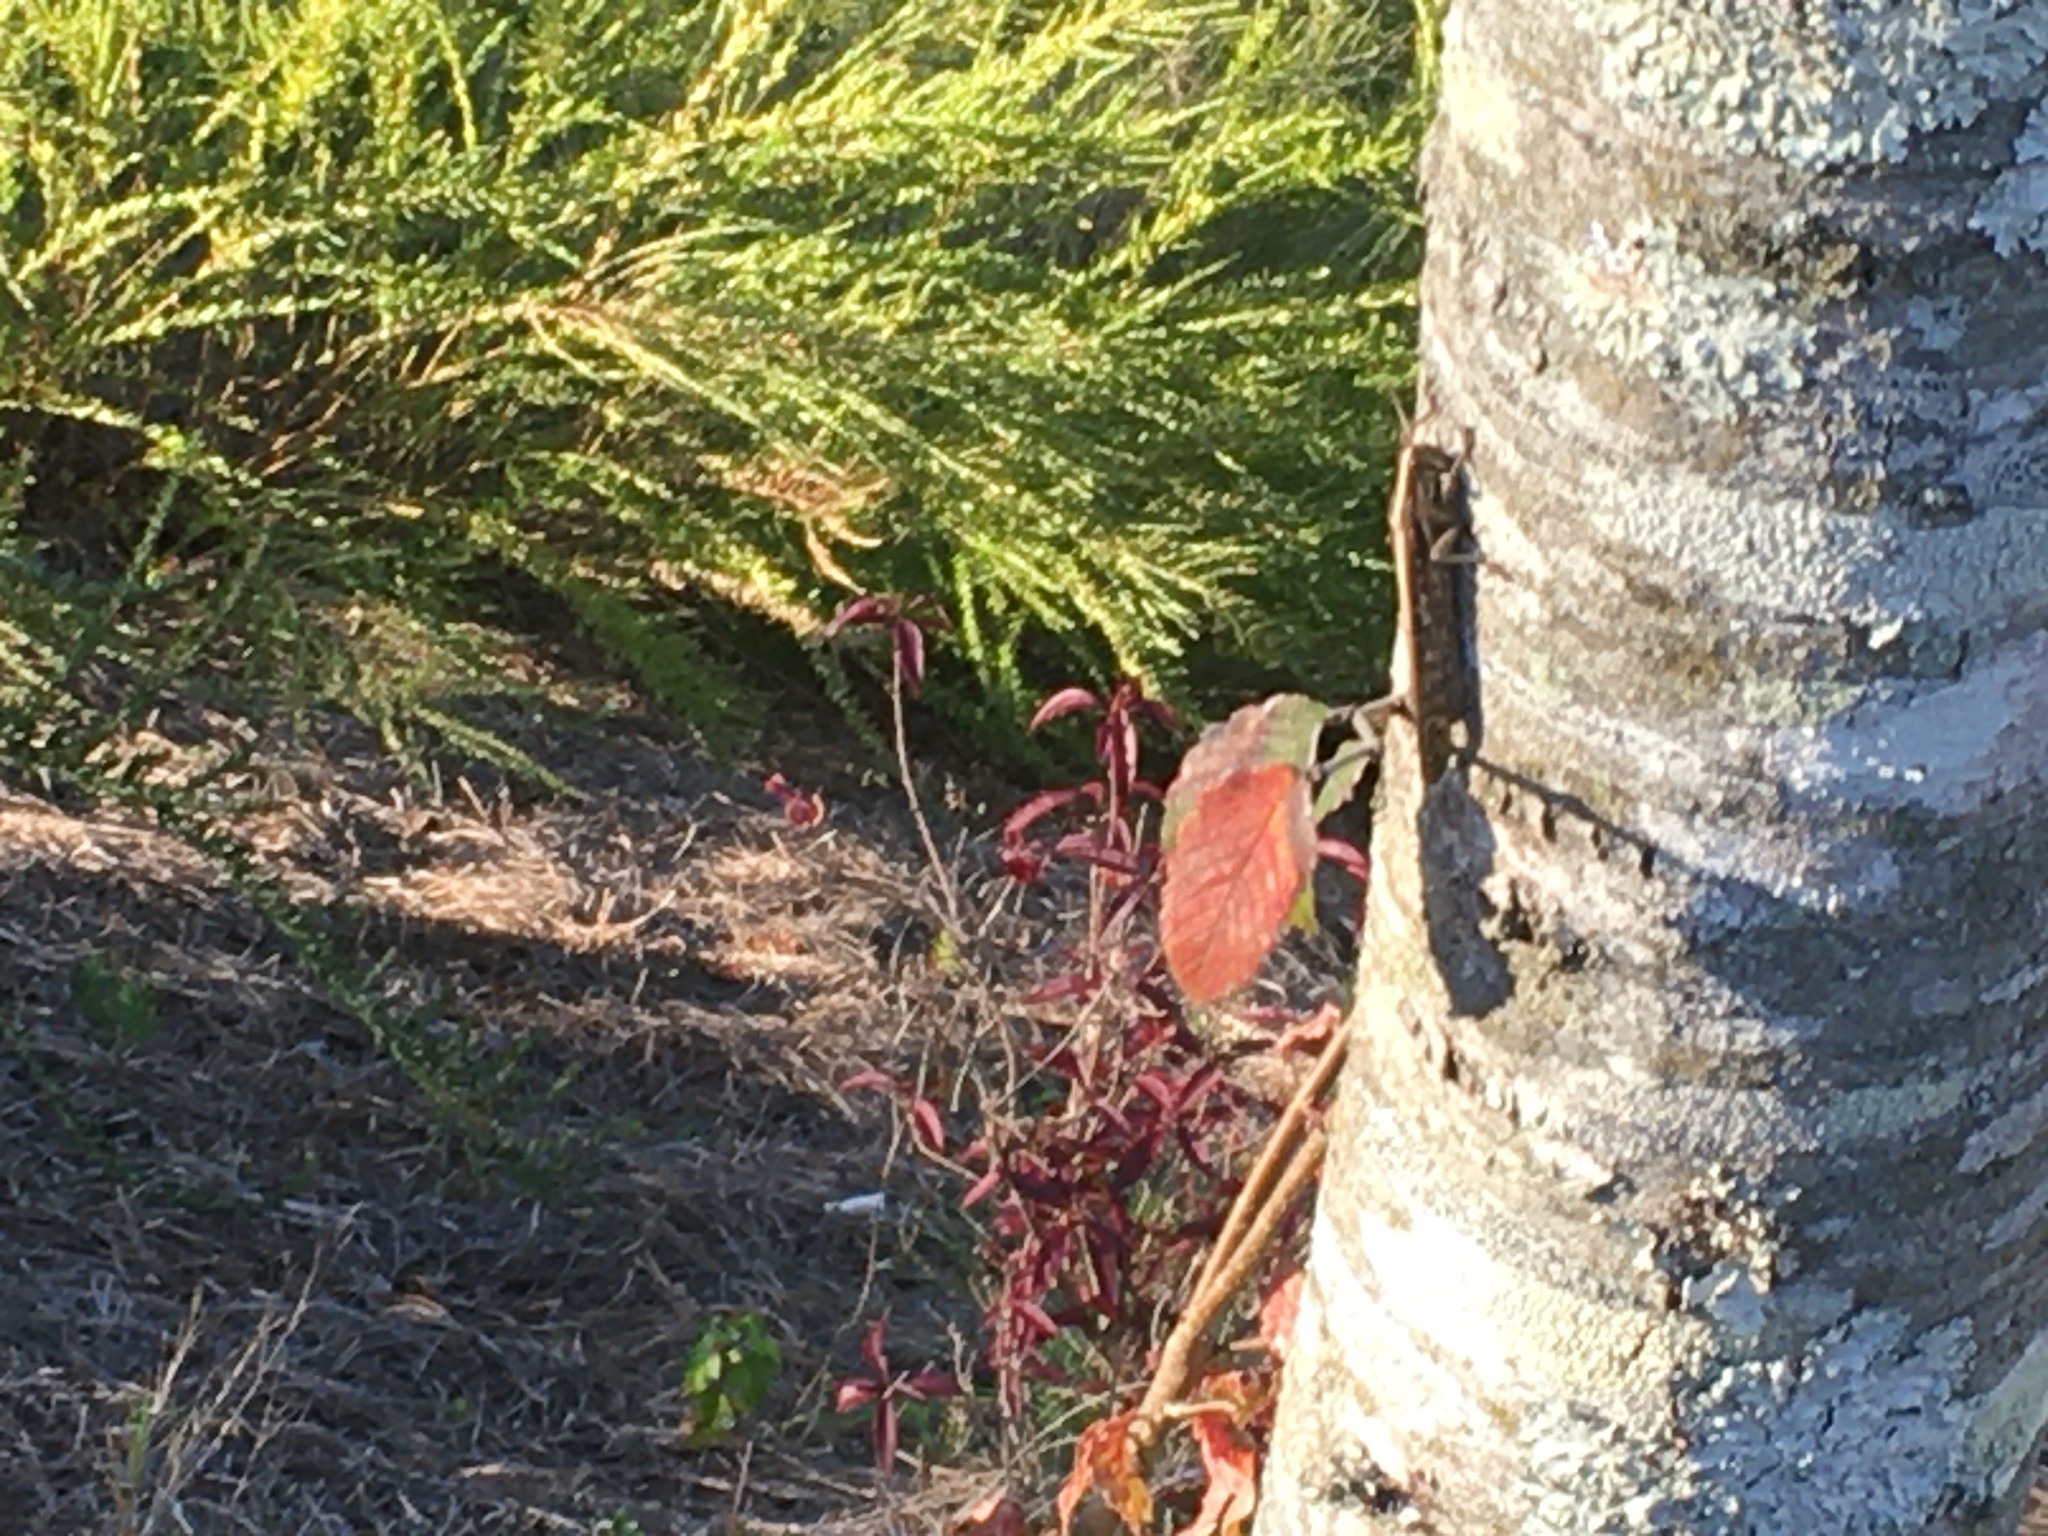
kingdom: Animalia
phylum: Arthropoda
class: Insecta
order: Orthoptera
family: Acrididae
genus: Schistocerca
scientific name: Schistocerca americana
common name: American bird locust
